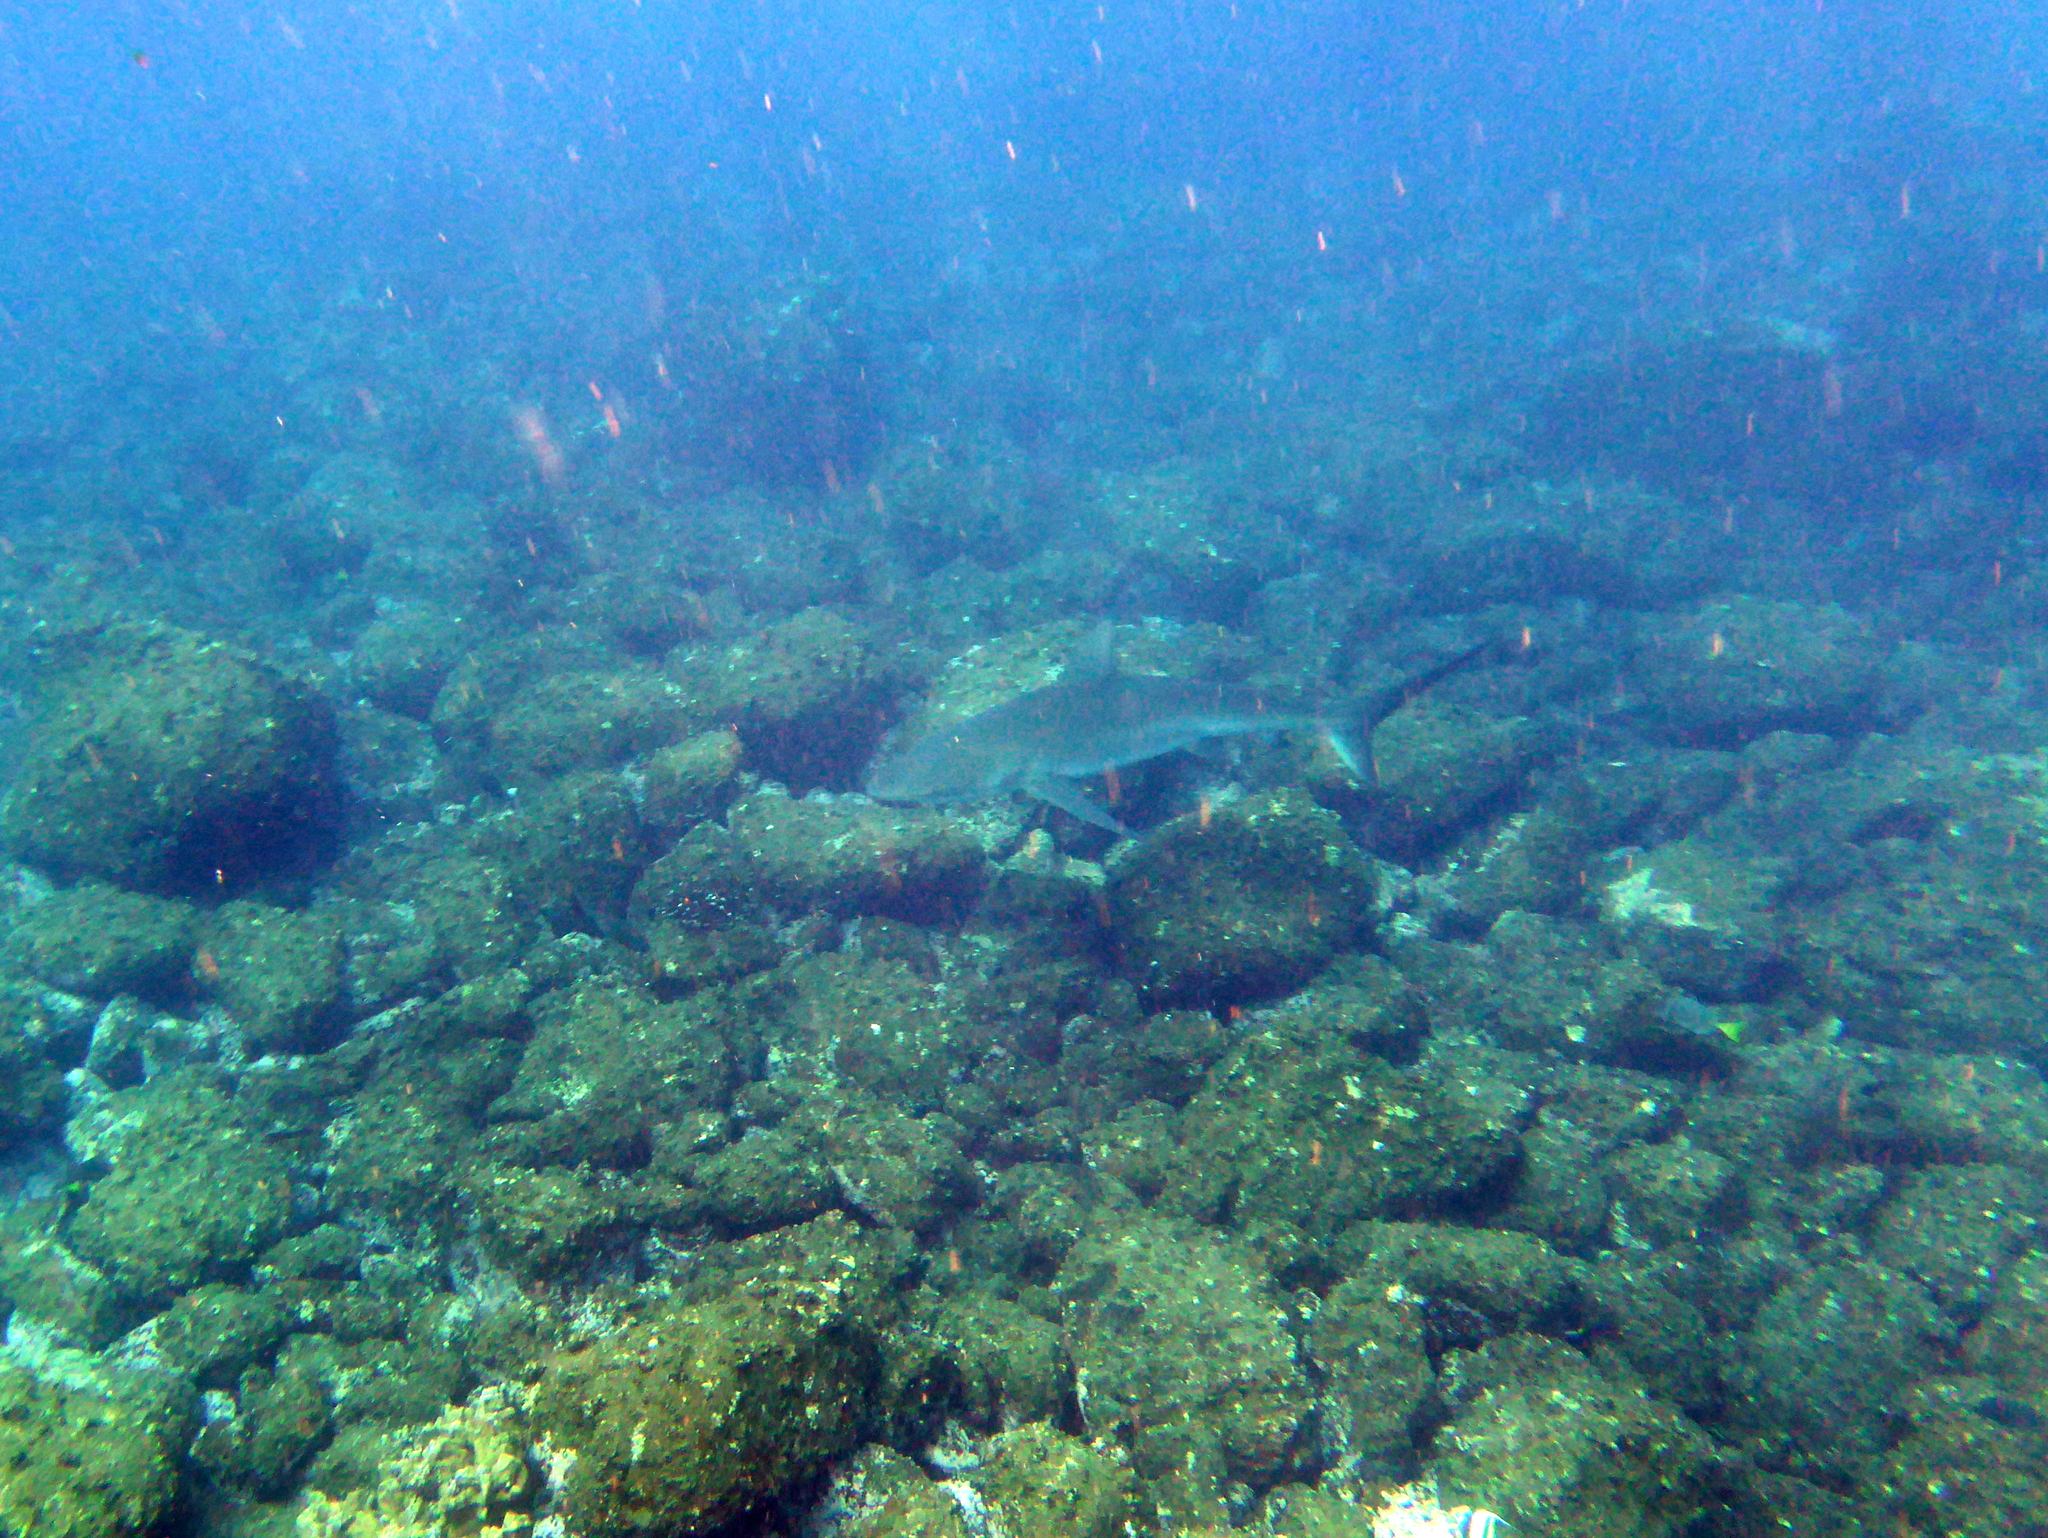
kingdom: Animalia
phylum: Chordata
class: Elasmobranchii
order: Carcharhiniformes
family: Carcharhinidae
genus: Carcharhinus
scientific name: Carcharhinus galapagensis
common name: Galapagos shark
